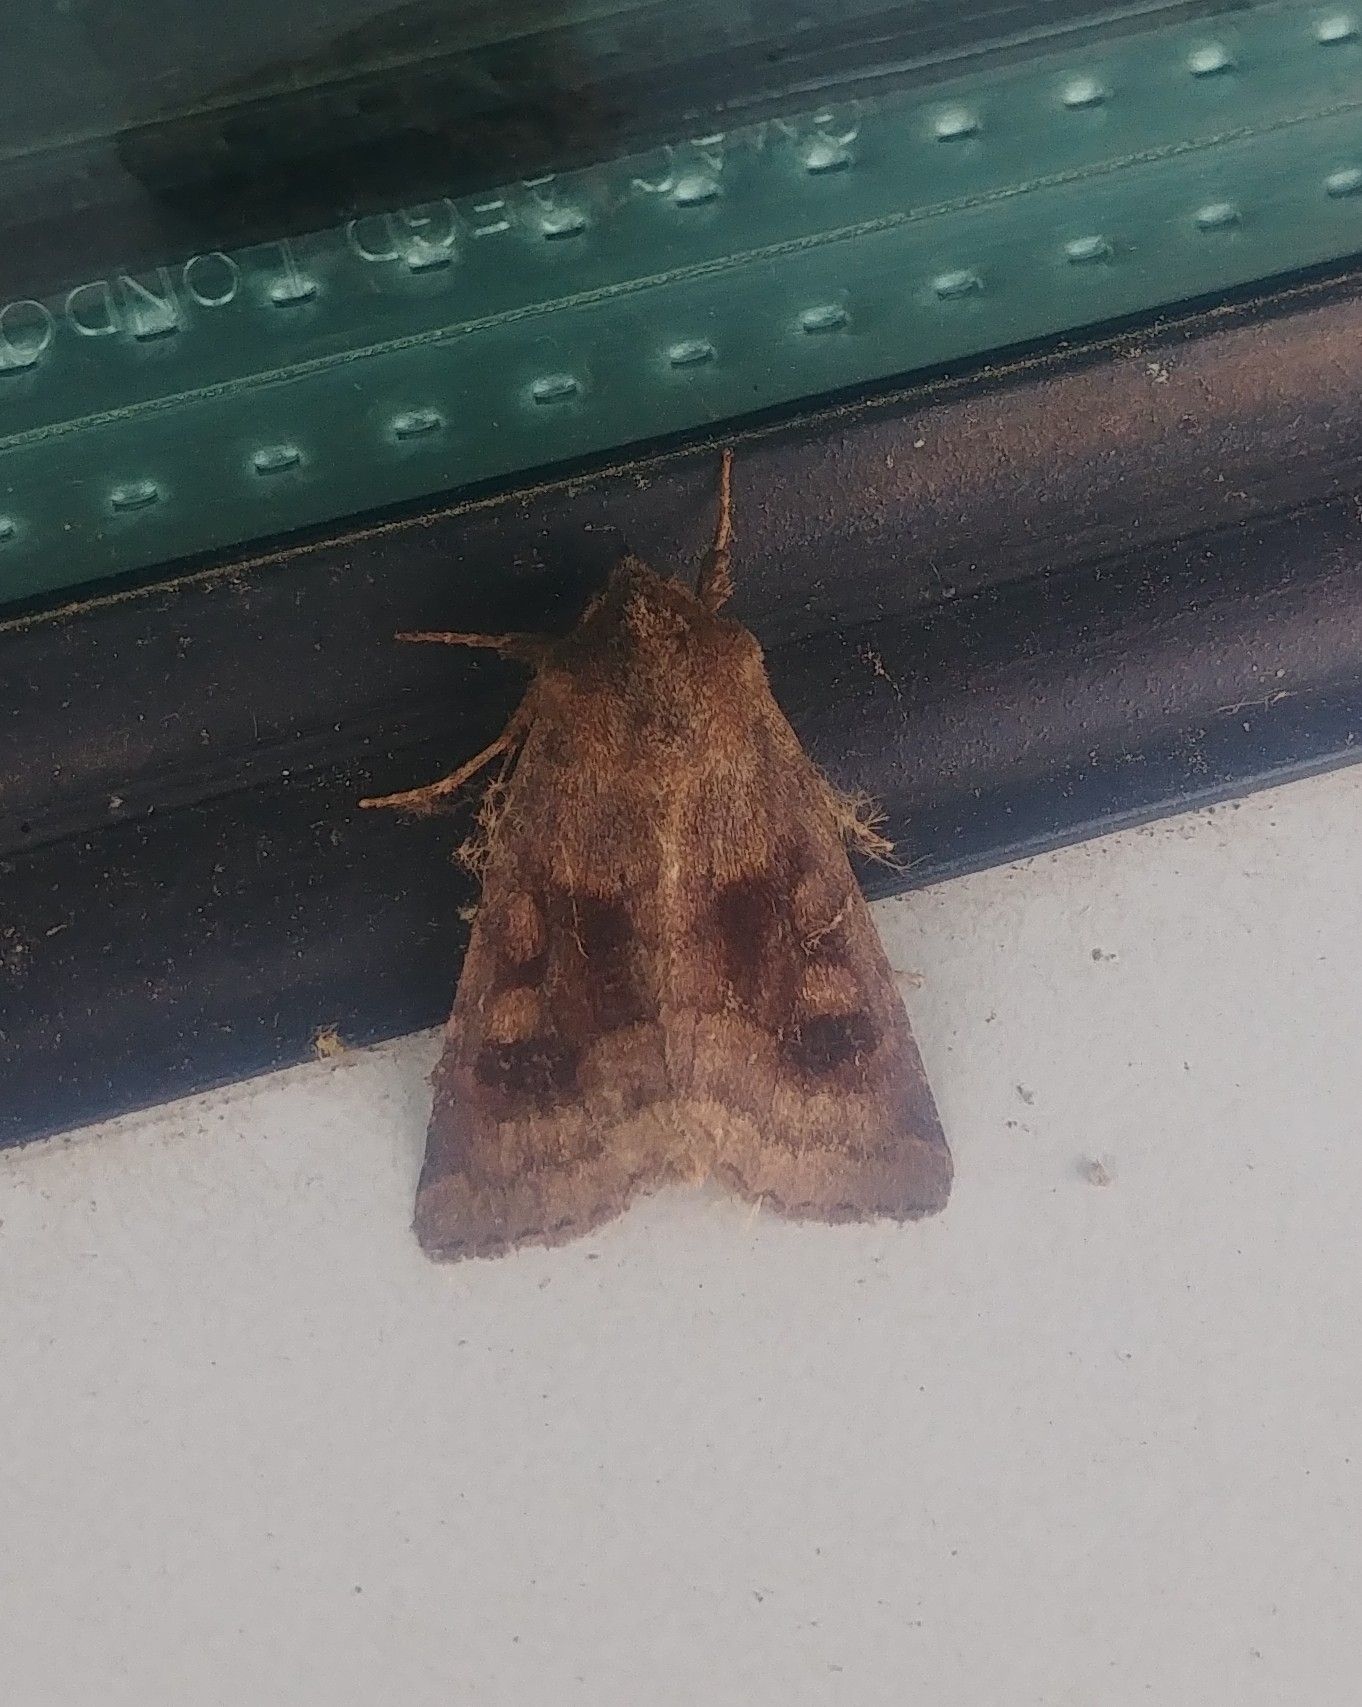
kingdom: Animalia
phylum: Arthropoda
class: Insecta
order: Lepidoptera
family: Noctuidae
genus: Nephelodes
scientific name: Nephelodes minians
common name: Bronzed cutworm
